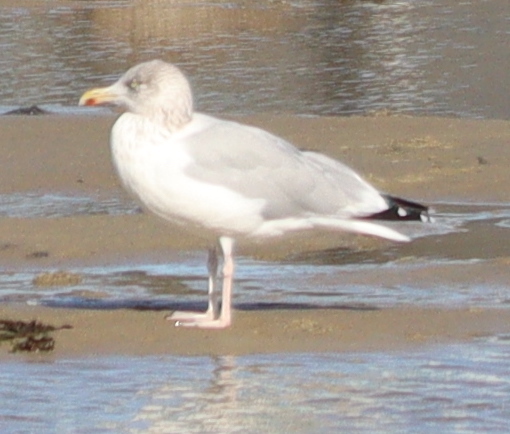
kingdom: Animalia
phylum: Chordata
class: Aves
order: Charadriiformes
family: Laridae
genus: Larus
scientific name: Larus argentatus
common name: Herring gull
